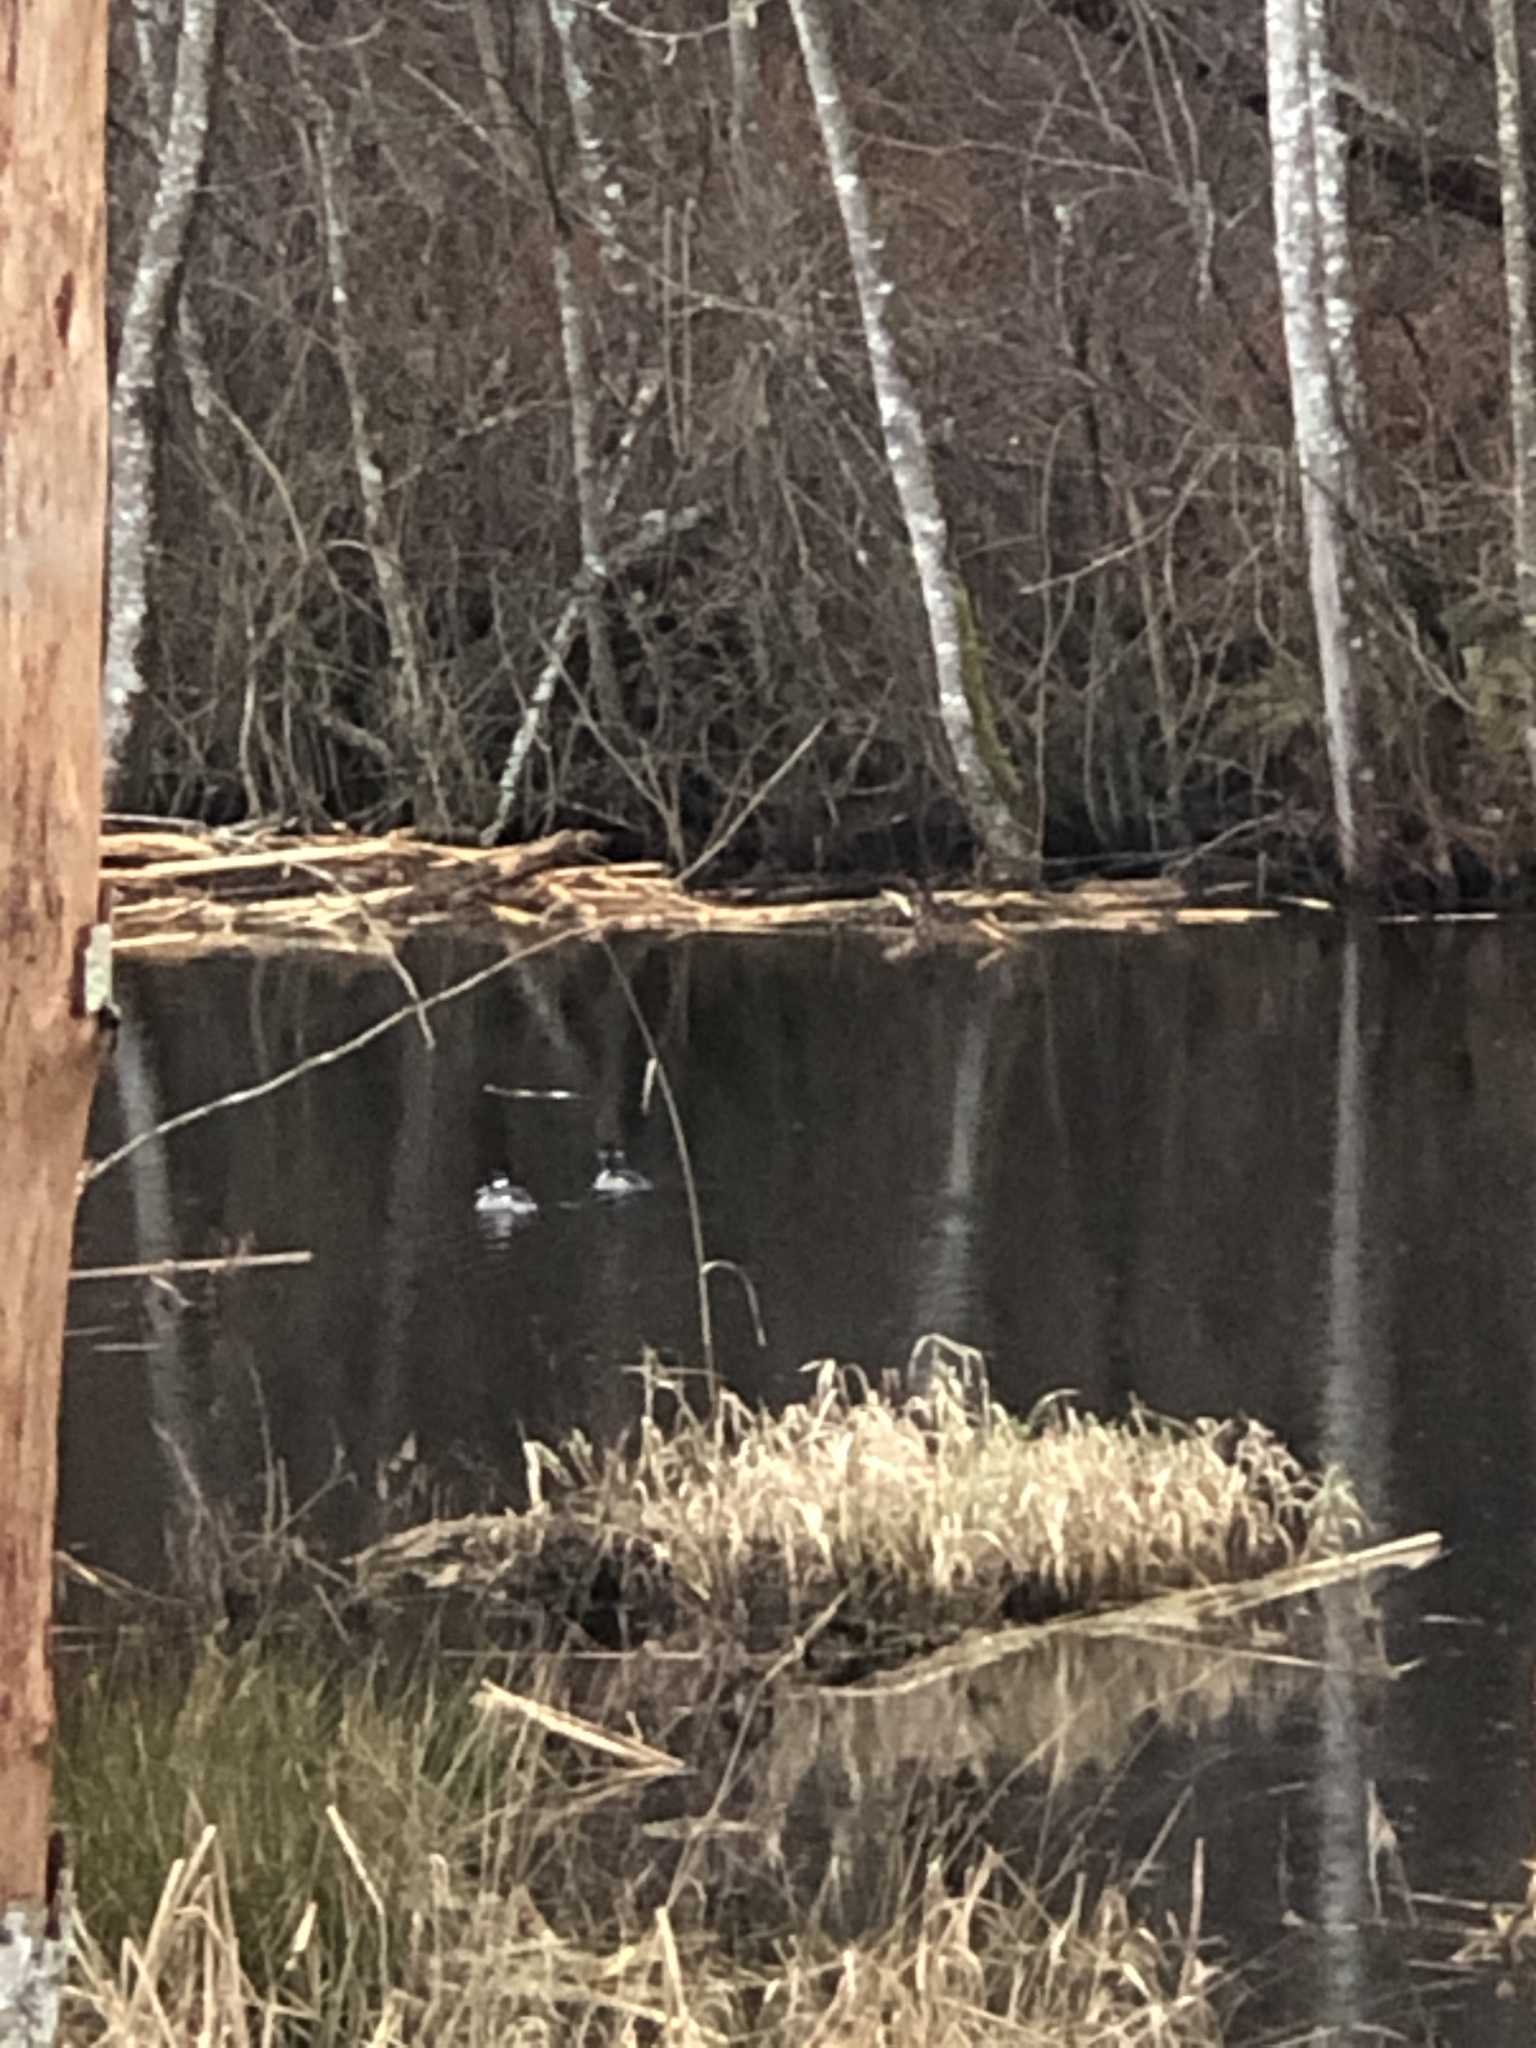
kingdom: Animalia
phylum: Chordata
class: Aves
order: Anseriformes
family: Anatidae
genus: Bucephala
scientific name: Bucephala albeola
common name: Bufflehead
